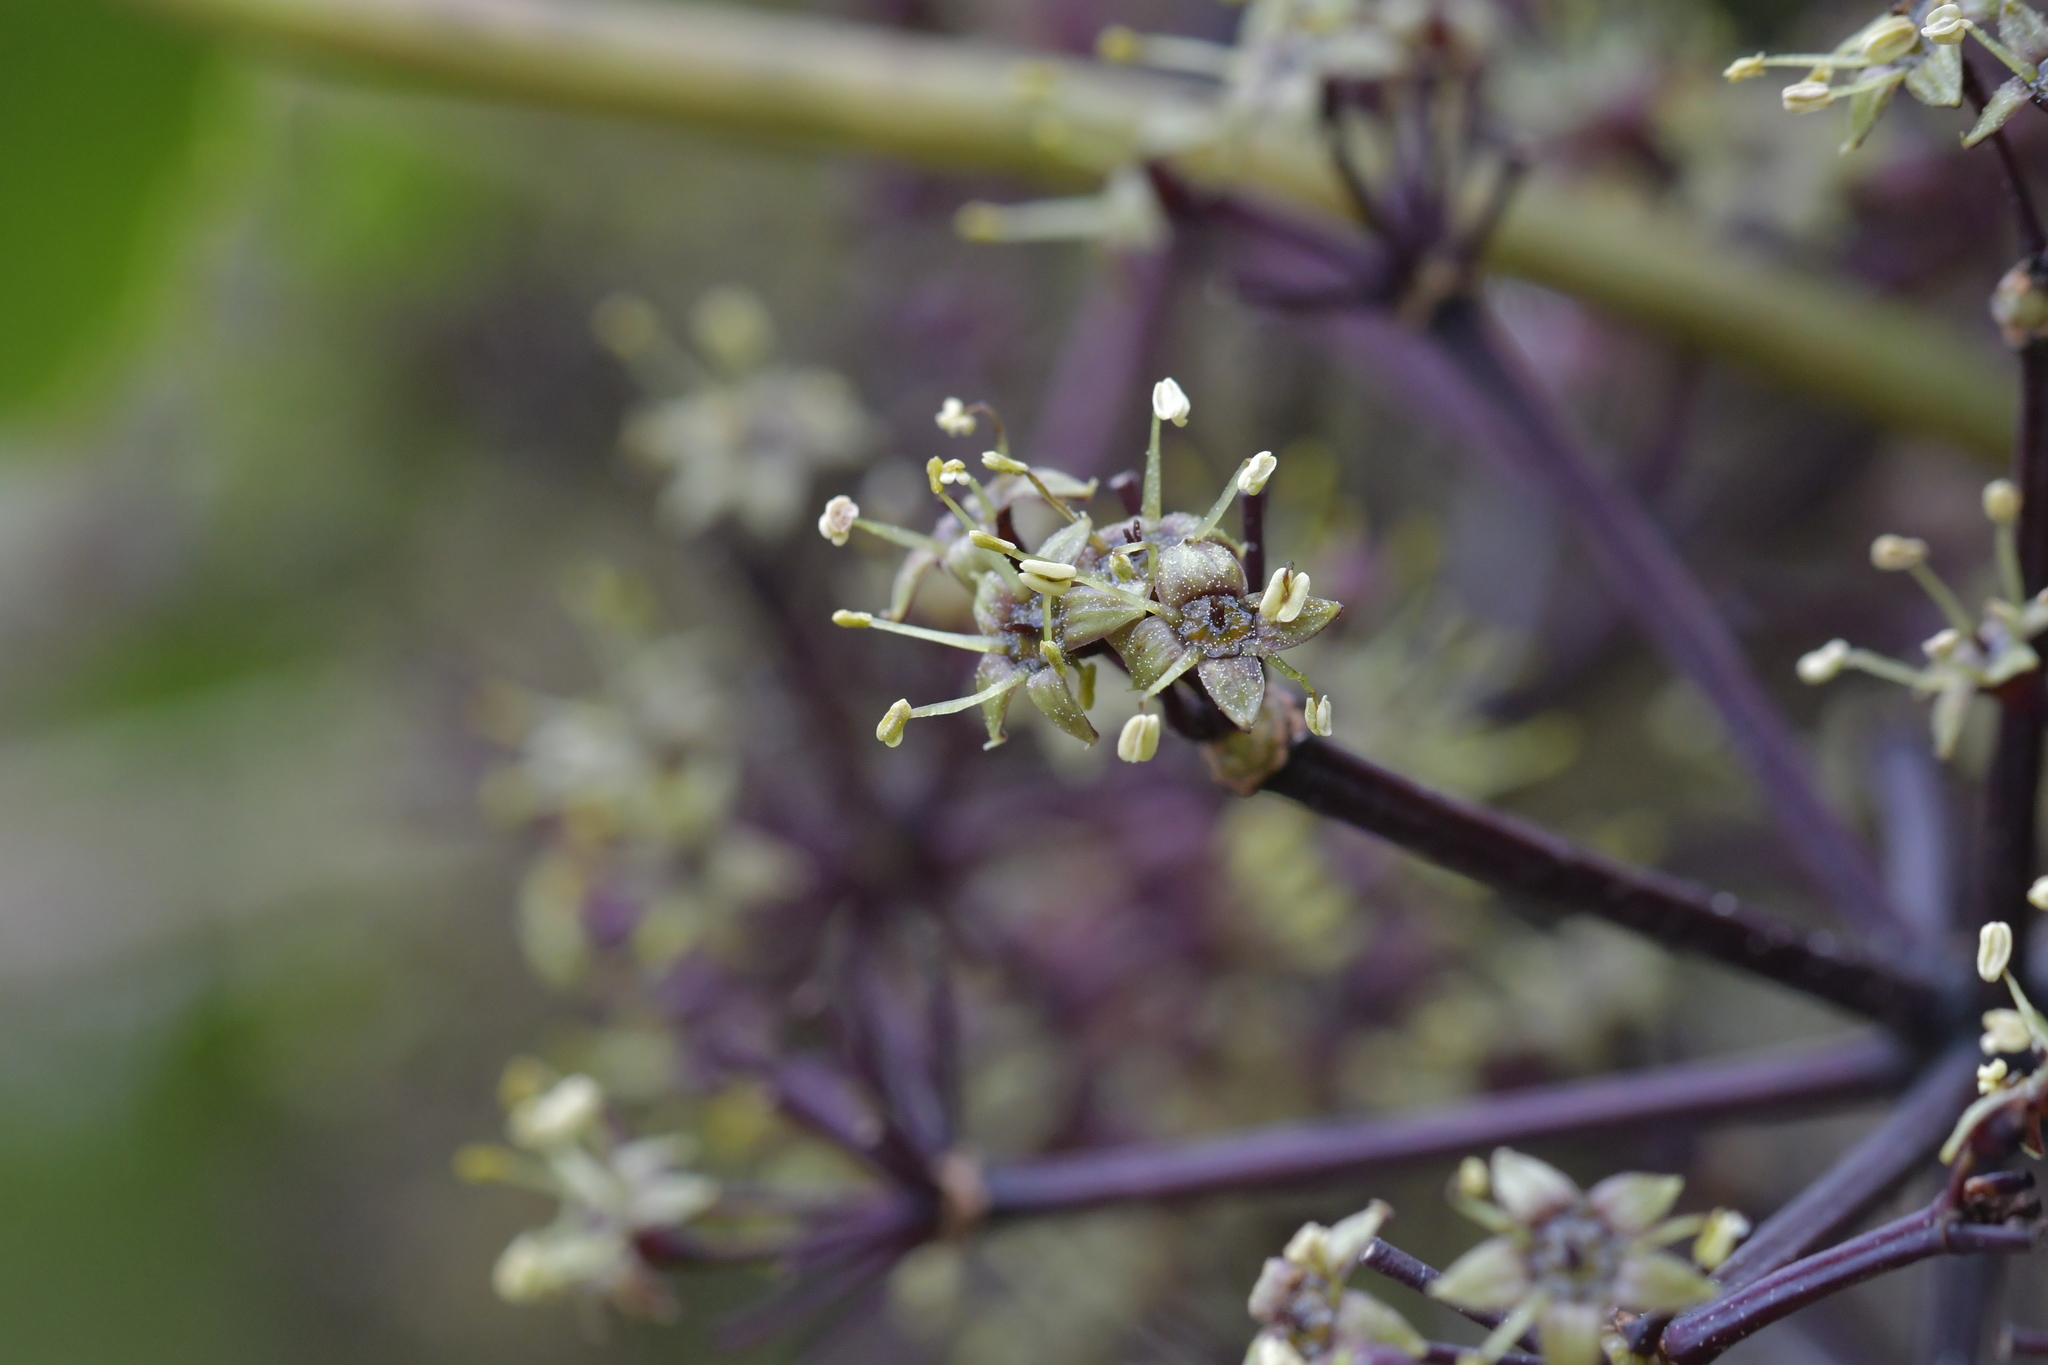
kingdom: Plantae
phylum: Tracheophyta
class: Magnoliopsida
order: Apiales
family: Araliaceae
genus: Neopanax
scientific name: Neopanax arboreus
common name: Five-fingers
